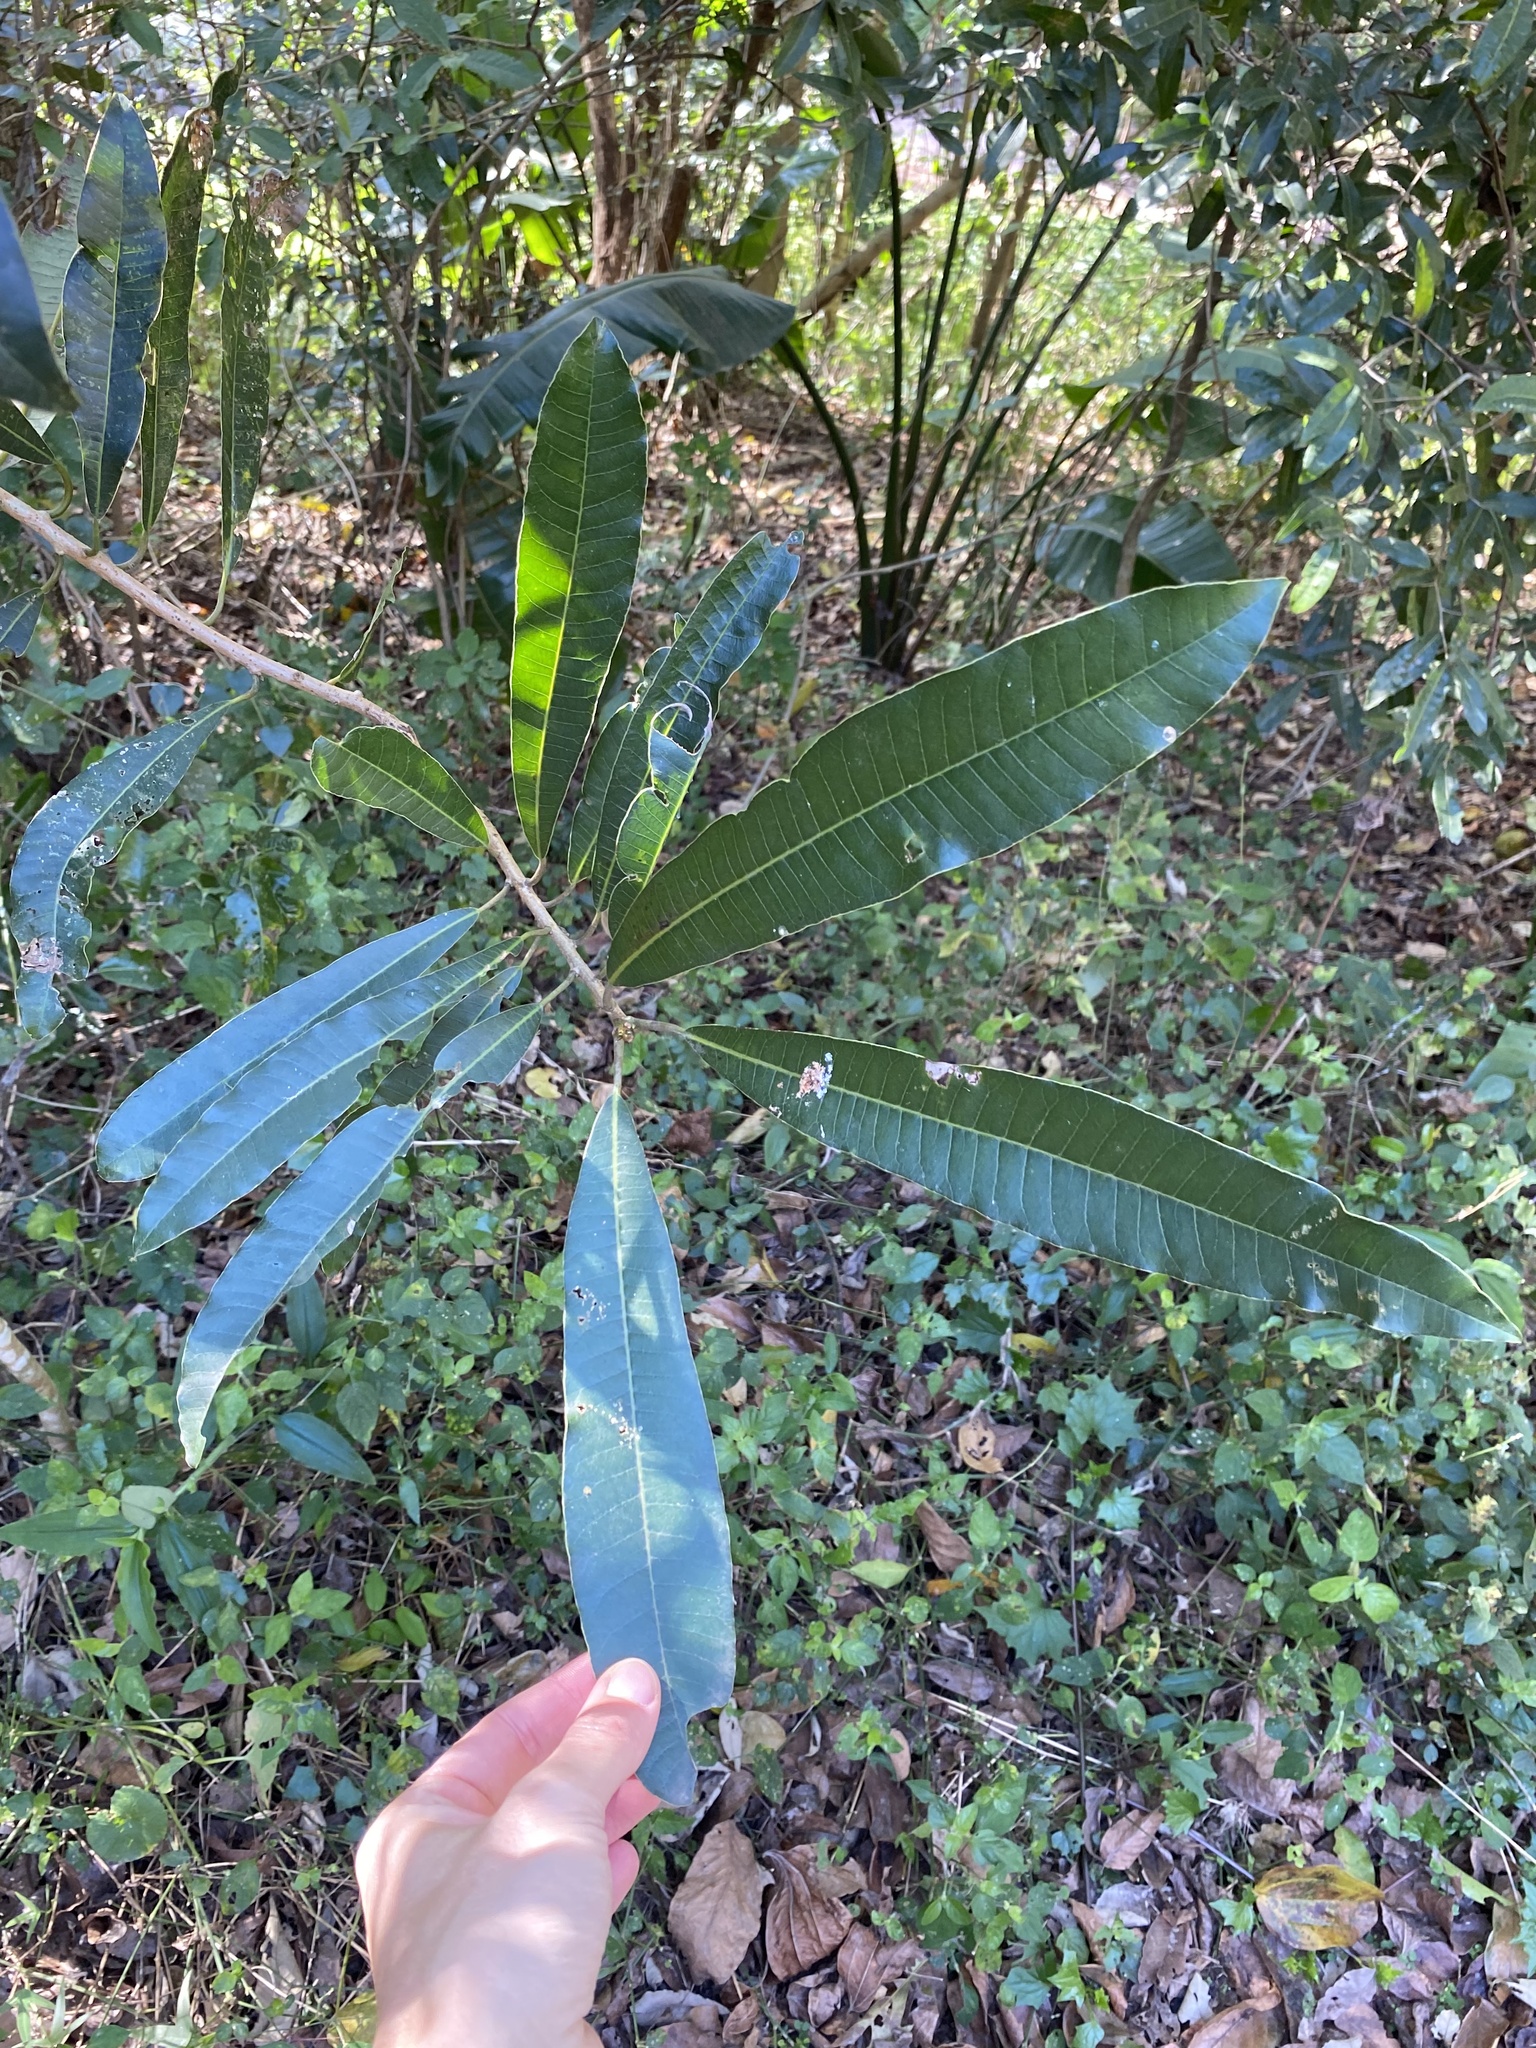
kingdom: Plantae
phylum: Tracheophyta
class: Magnoliopsida
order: Sapindales
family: Anacardiaceae
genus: Protorhus
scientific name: Protorhus longifolia
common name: Red-beech
